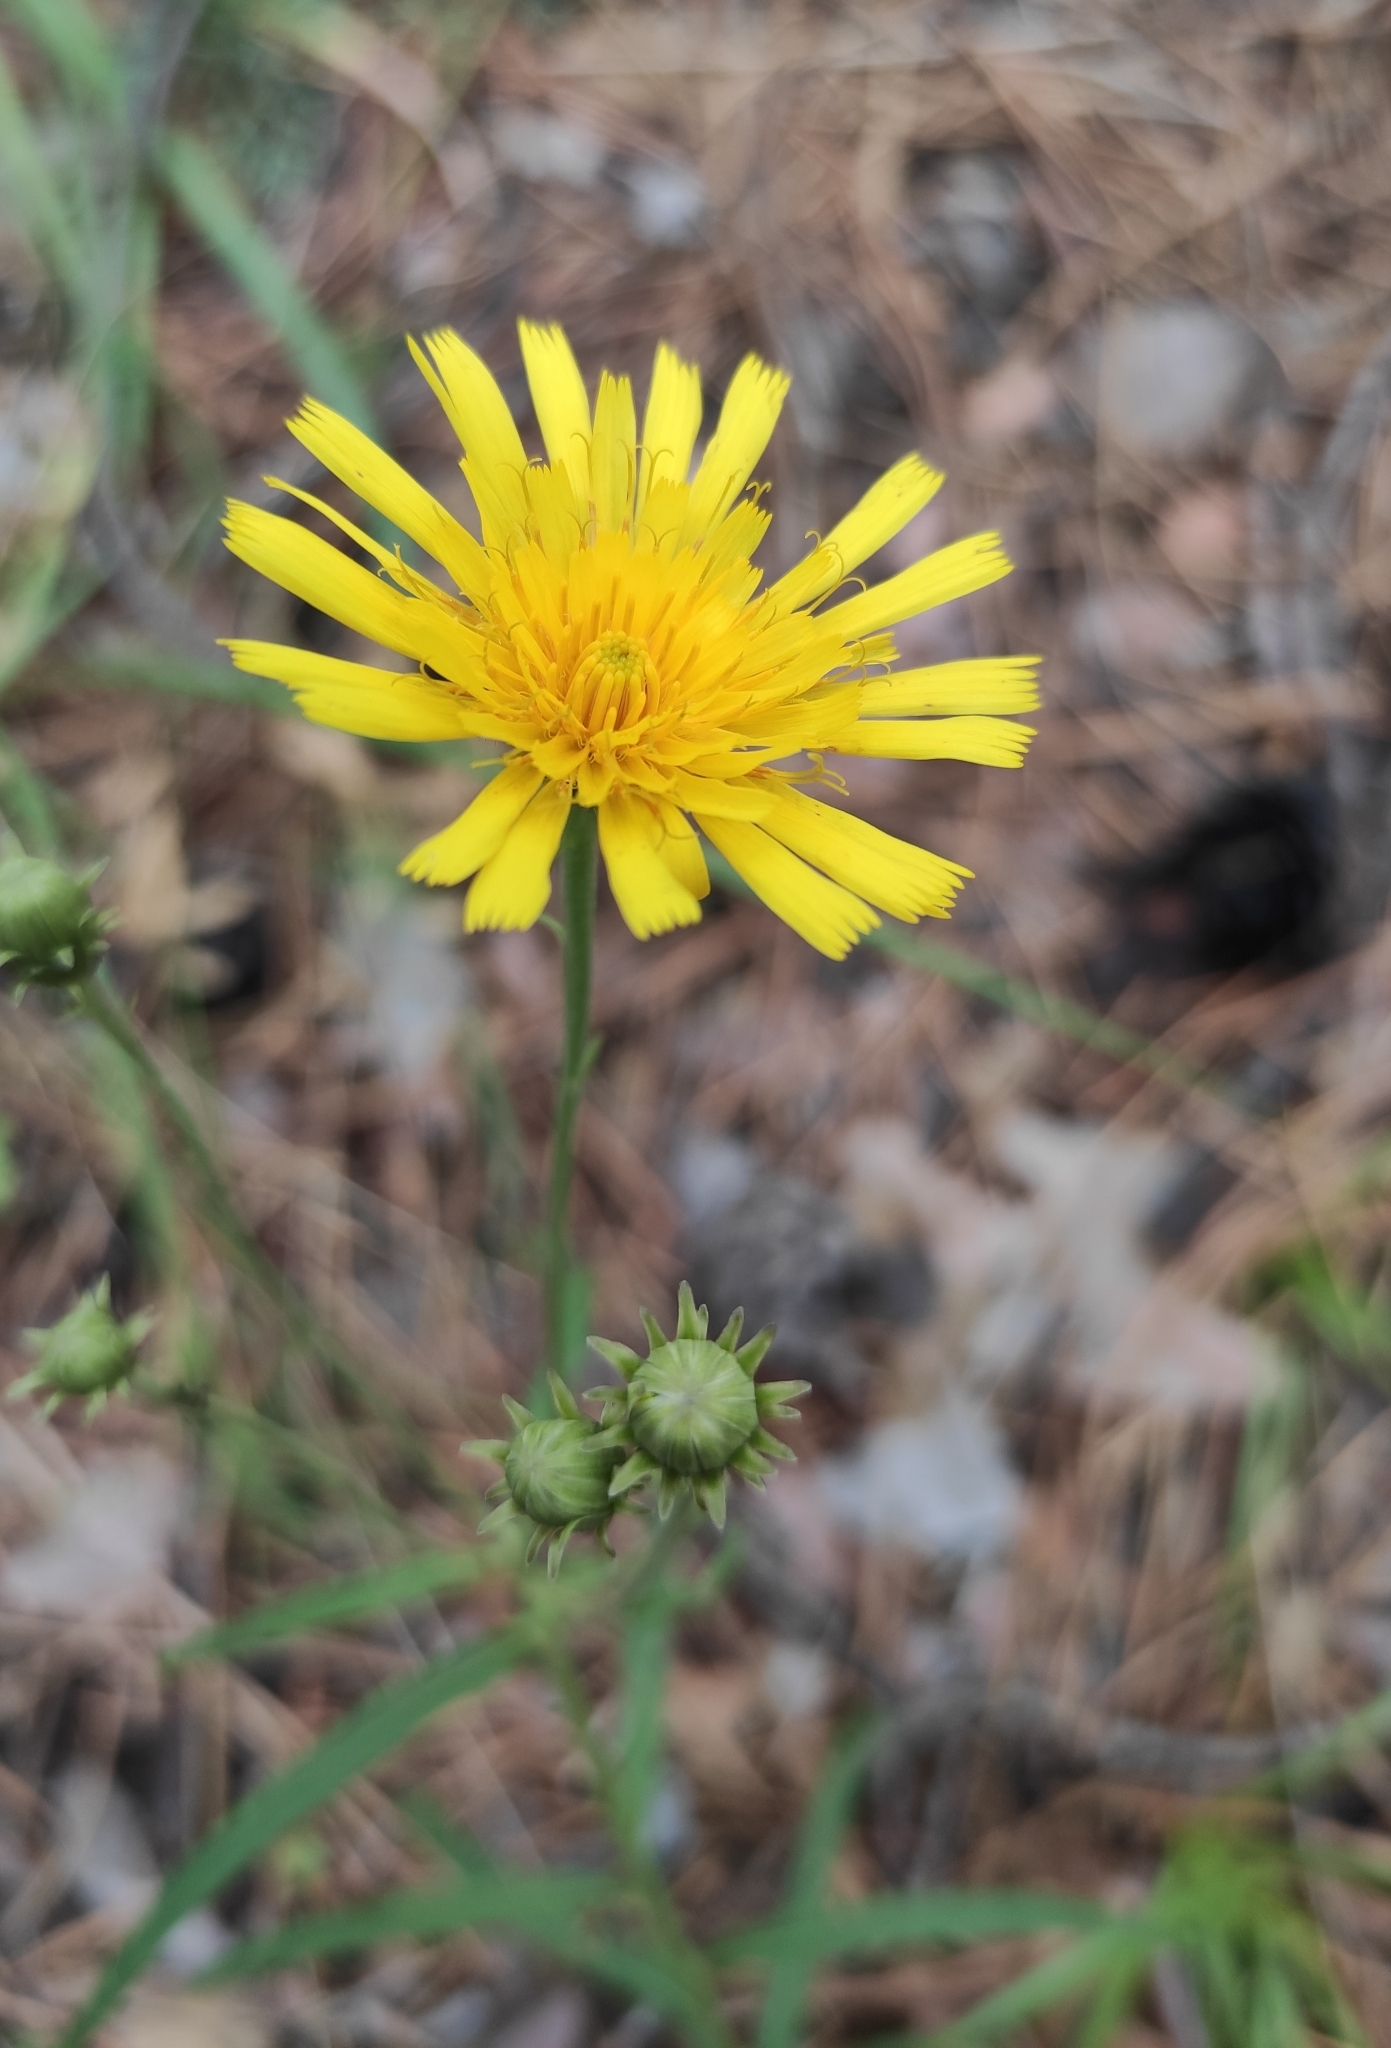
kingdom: Plantae
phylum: Tracheophyta
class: Magnoliopsida
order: Asterales
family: Asteraceae
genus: Hieracium
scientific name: Hieracium umbellatum
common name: Northern hawkweed
